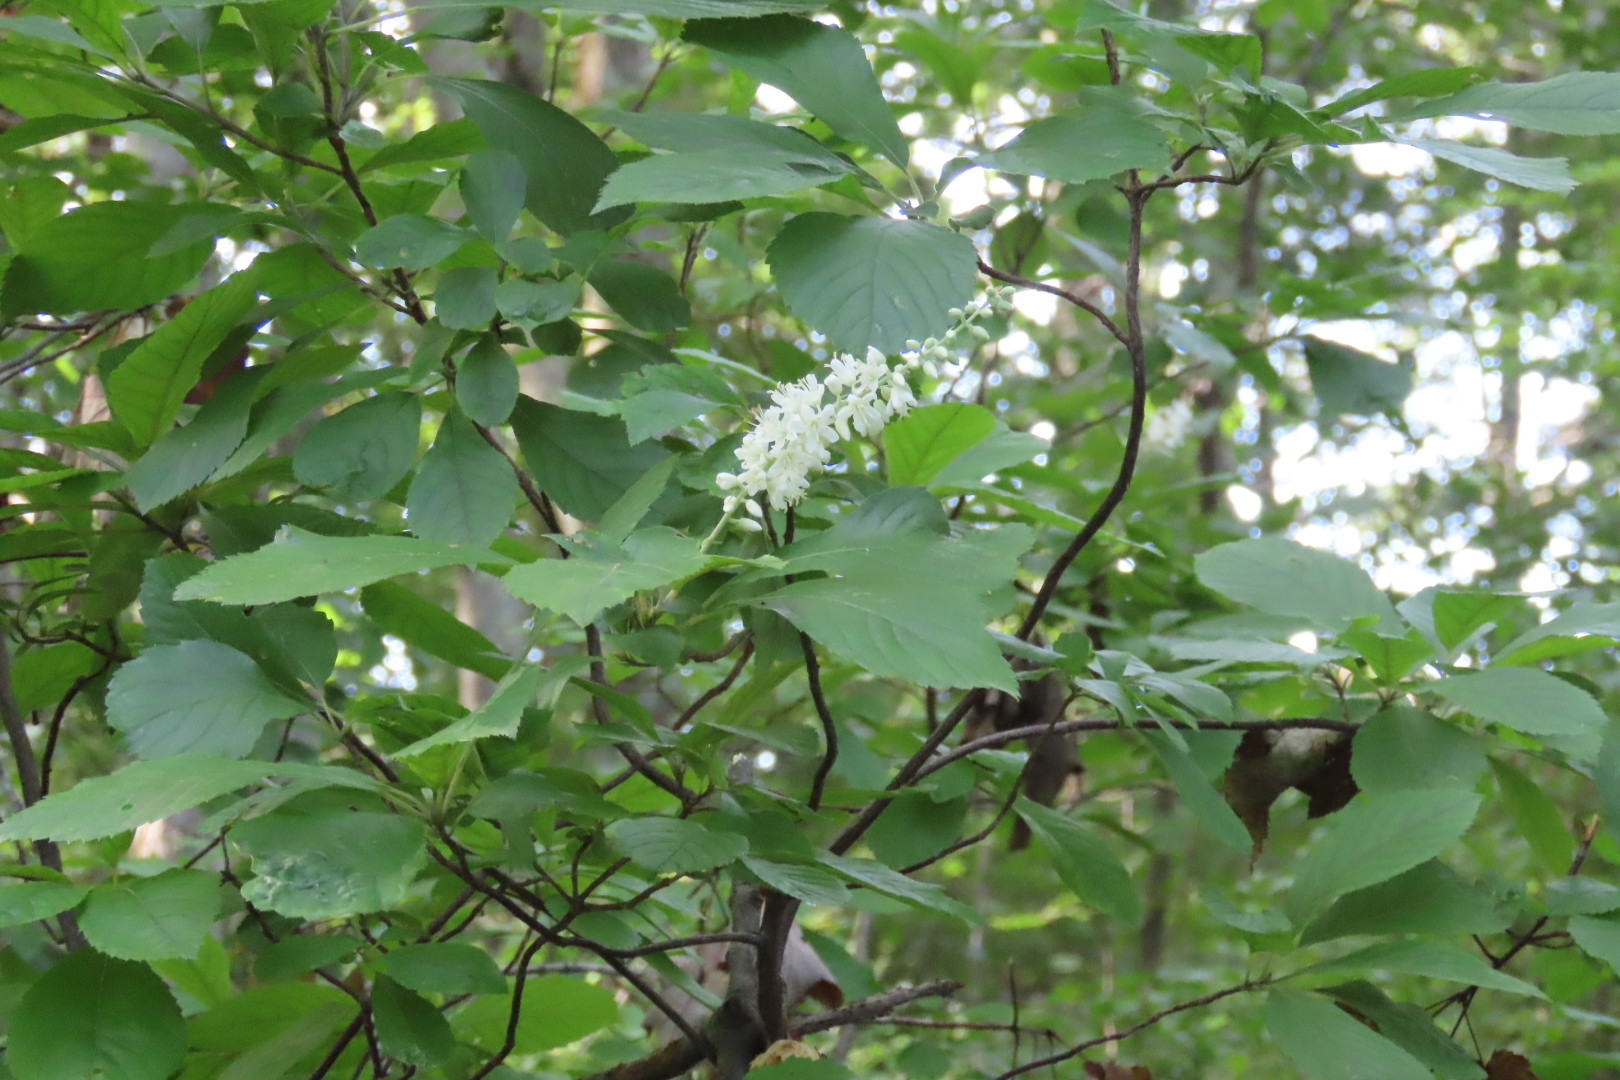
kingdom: Plantae
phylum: Tracheophyta
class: Magnoliopsida
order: Ericales
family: Clethraceae
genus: Clethra
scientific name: Clethra alnifolia
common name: Sweet pepperbush
